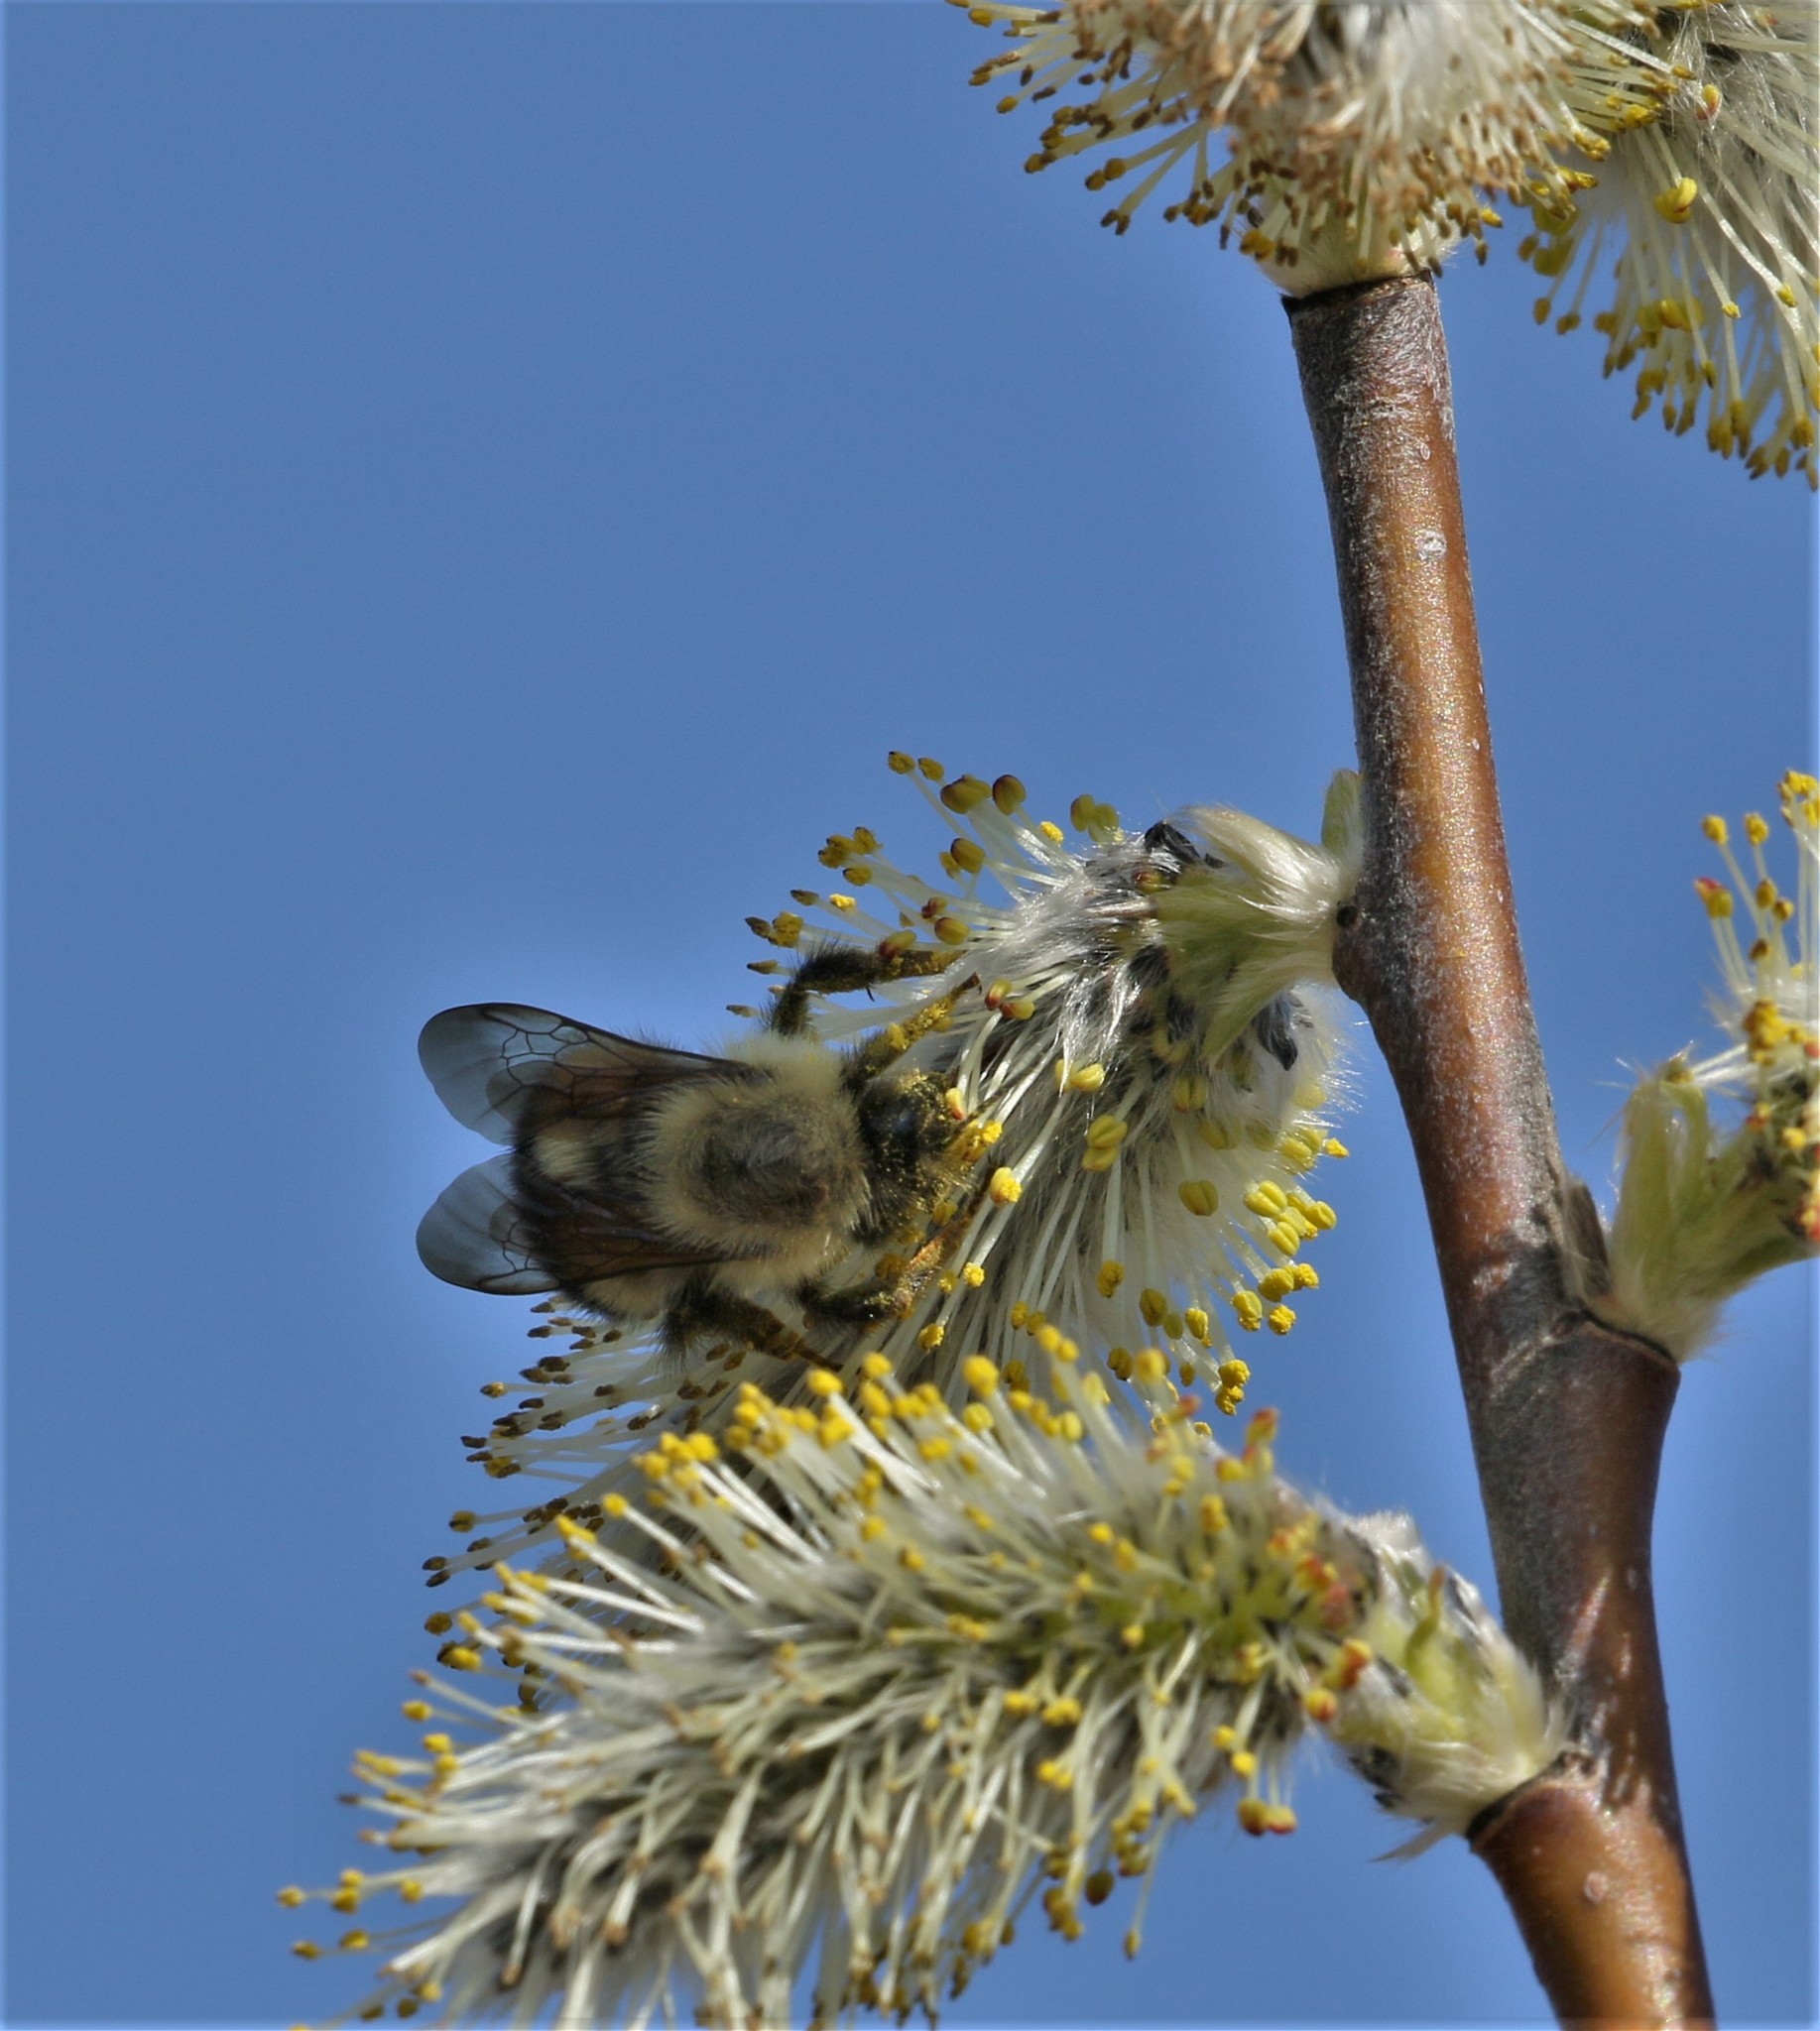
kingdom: Animalia
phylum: Arthropoda
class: Insecta
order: Hymenoptera
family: Apidae
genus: Pyrobombus
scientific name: Pyrobombus
